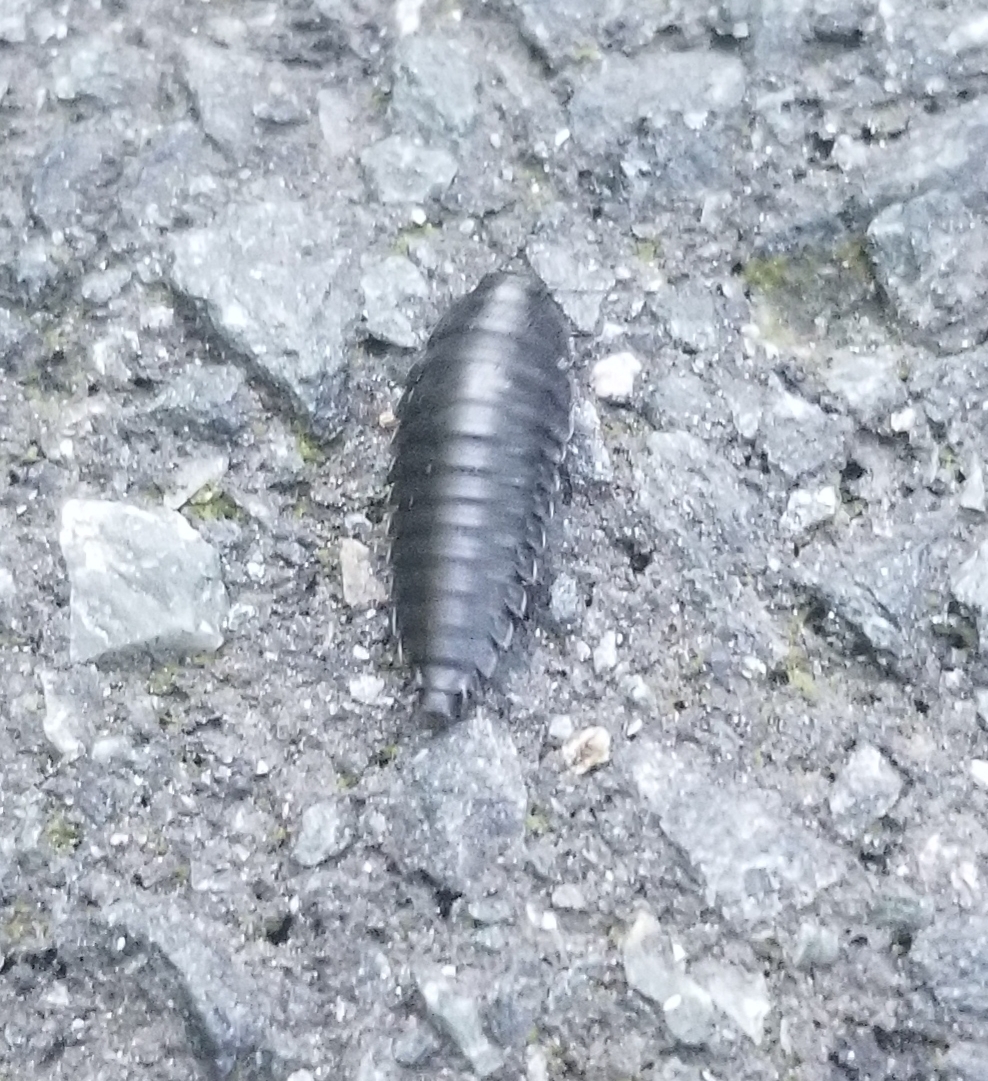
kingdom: Animalia
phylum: Arthropoda
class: Insecta
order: Coleoptera
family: Staphylinidae
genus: Necrophila
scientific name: Necrophila americana
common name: American carrion beetle
